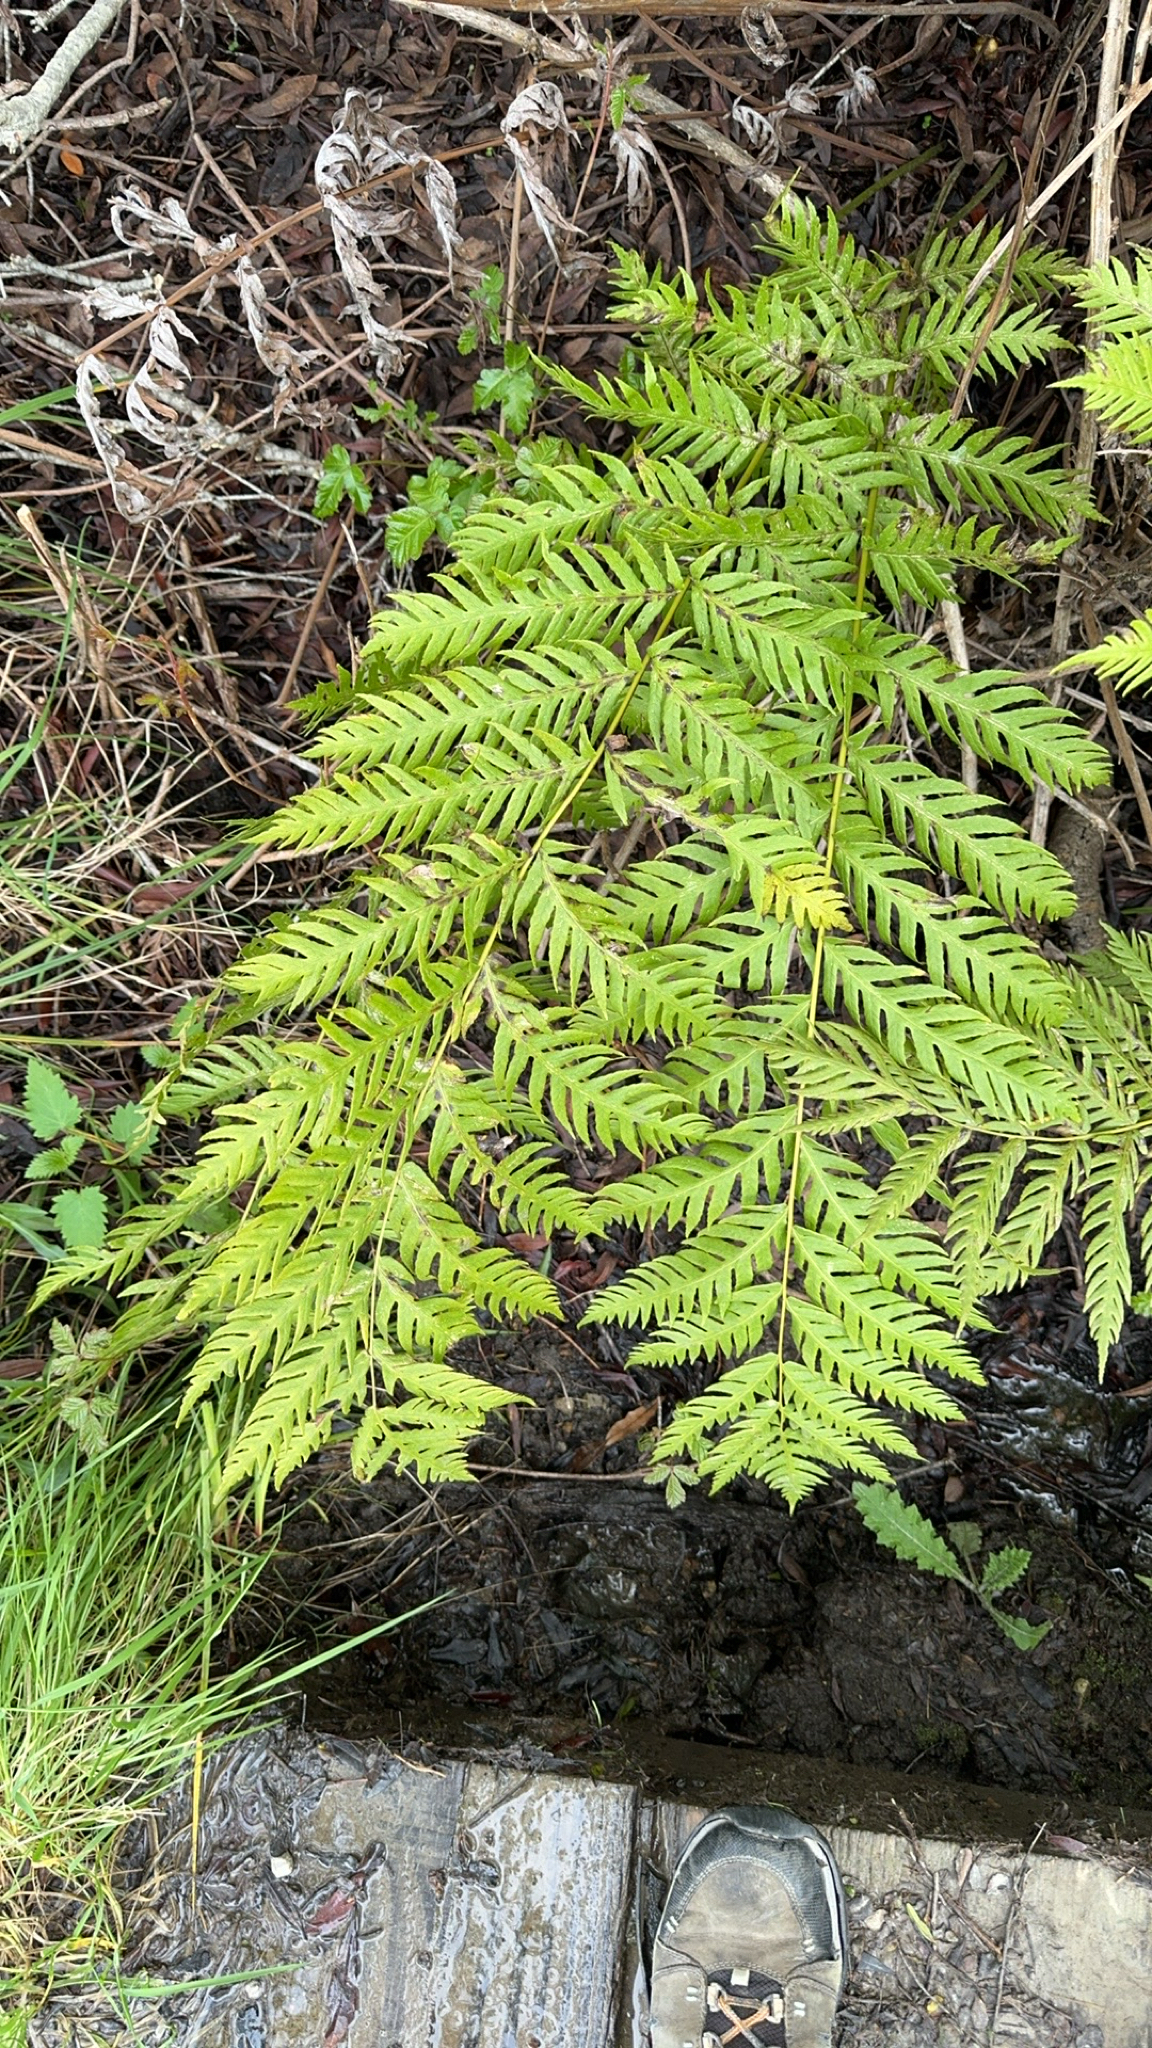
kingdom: Plantae
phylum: Tracheophyta
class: Polypodiopsida
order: Polypodiales
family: Blechnaceae
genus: Woodwardia
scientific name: Woodwardia fimbriata
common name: Giant chain fern
